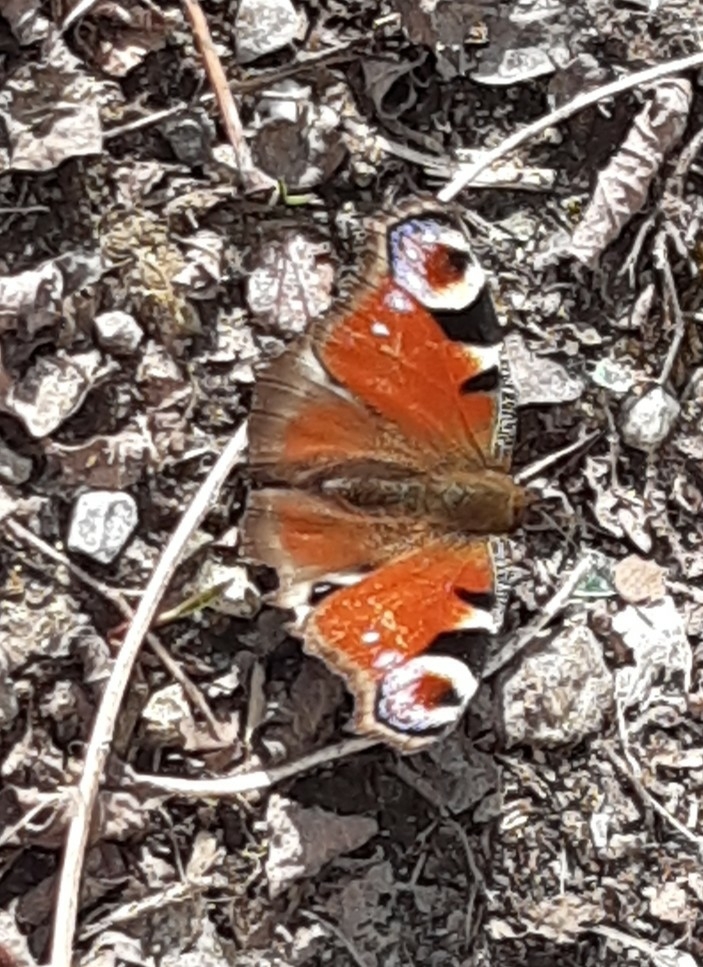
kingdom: Animalia
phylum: Arthropoda
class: Insecta
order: Lepidoptera
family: Nymphalidae
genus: Aglais
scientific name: Aglais io
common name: Peacock
